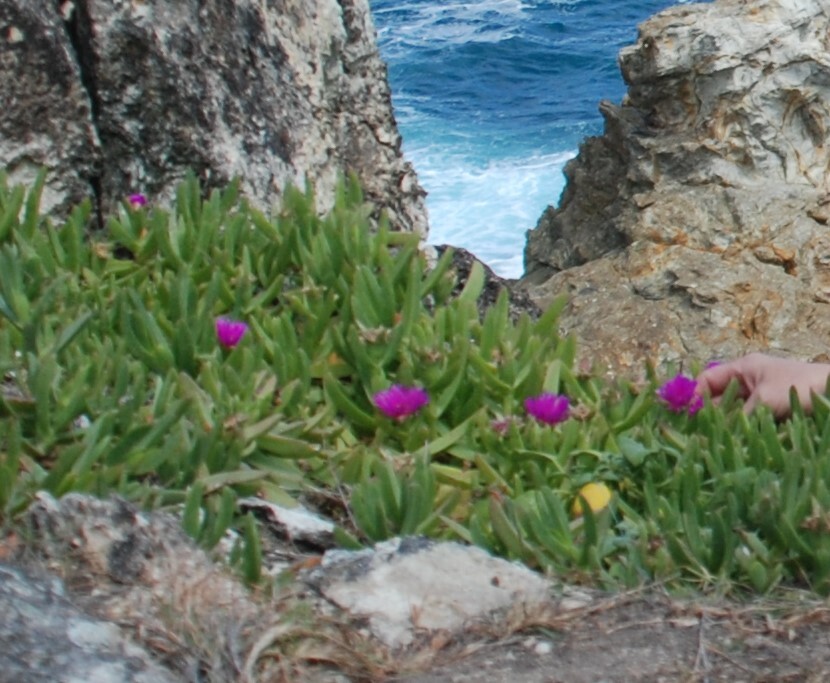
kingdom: Plantae
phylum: Tracheophyta
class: Magnoliopsida
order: Caryophyllales
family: Aizoaceae
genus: Carpobrotus
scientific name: Carpobrotus glaucescens
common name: Angular sea-fig
